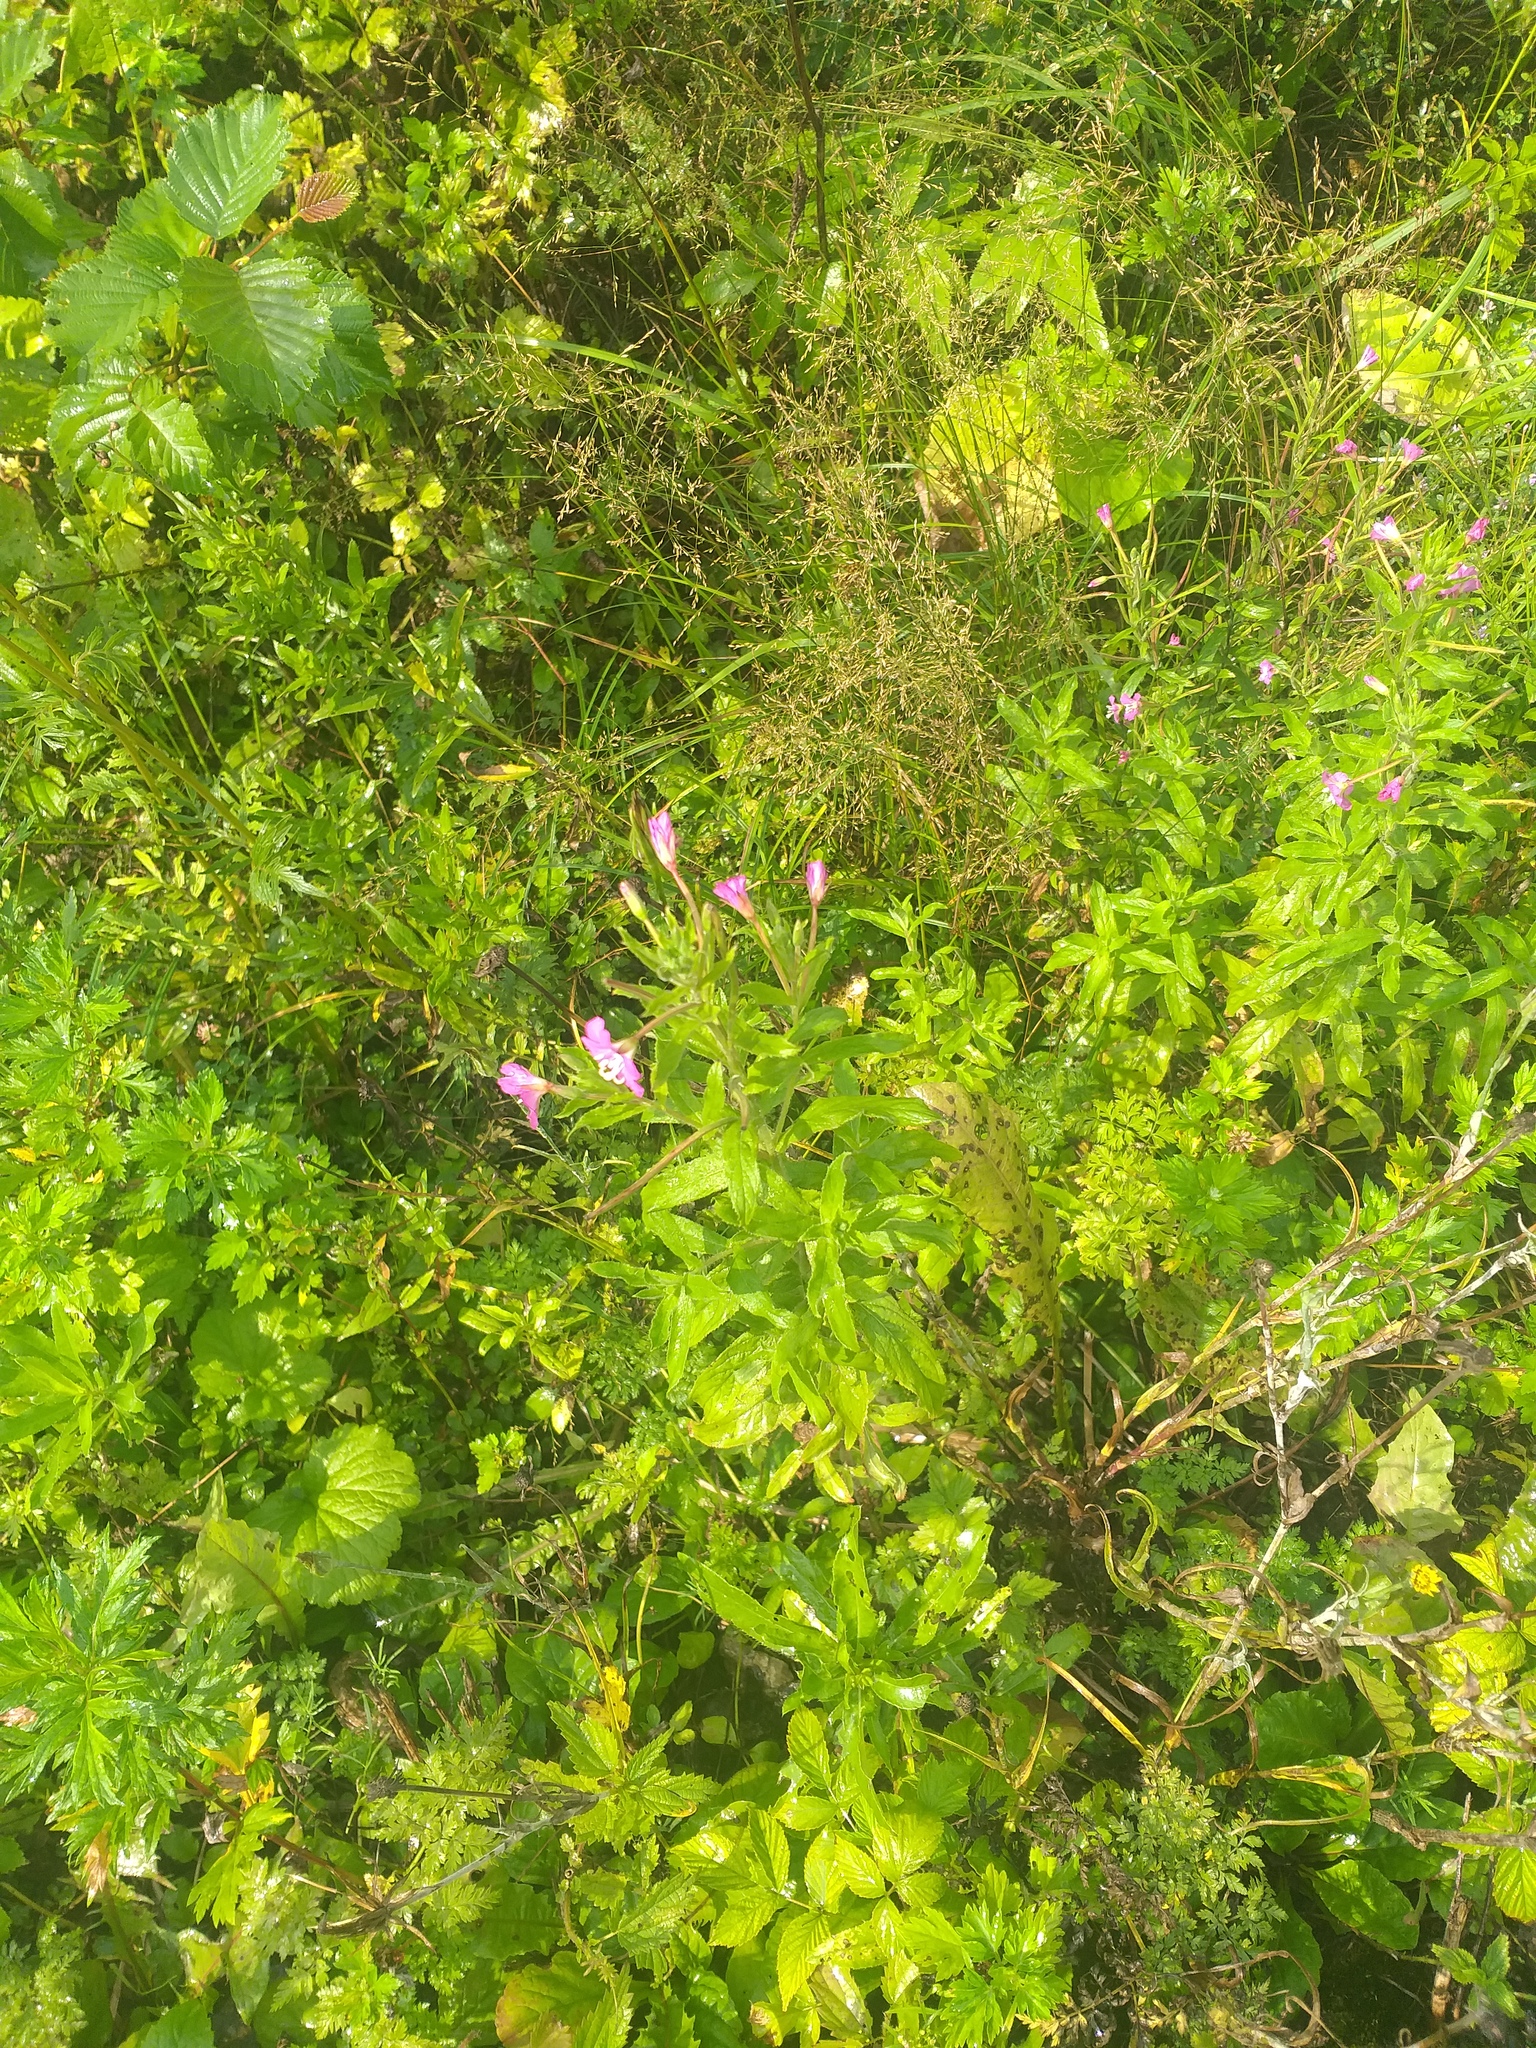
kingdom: Plantae
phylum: Tracheophyta
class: Magnoliopsida
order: Myrtales
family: Onagraceae
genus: Epilobium
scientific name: Epilobium hirsutum
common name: Great willowherb
